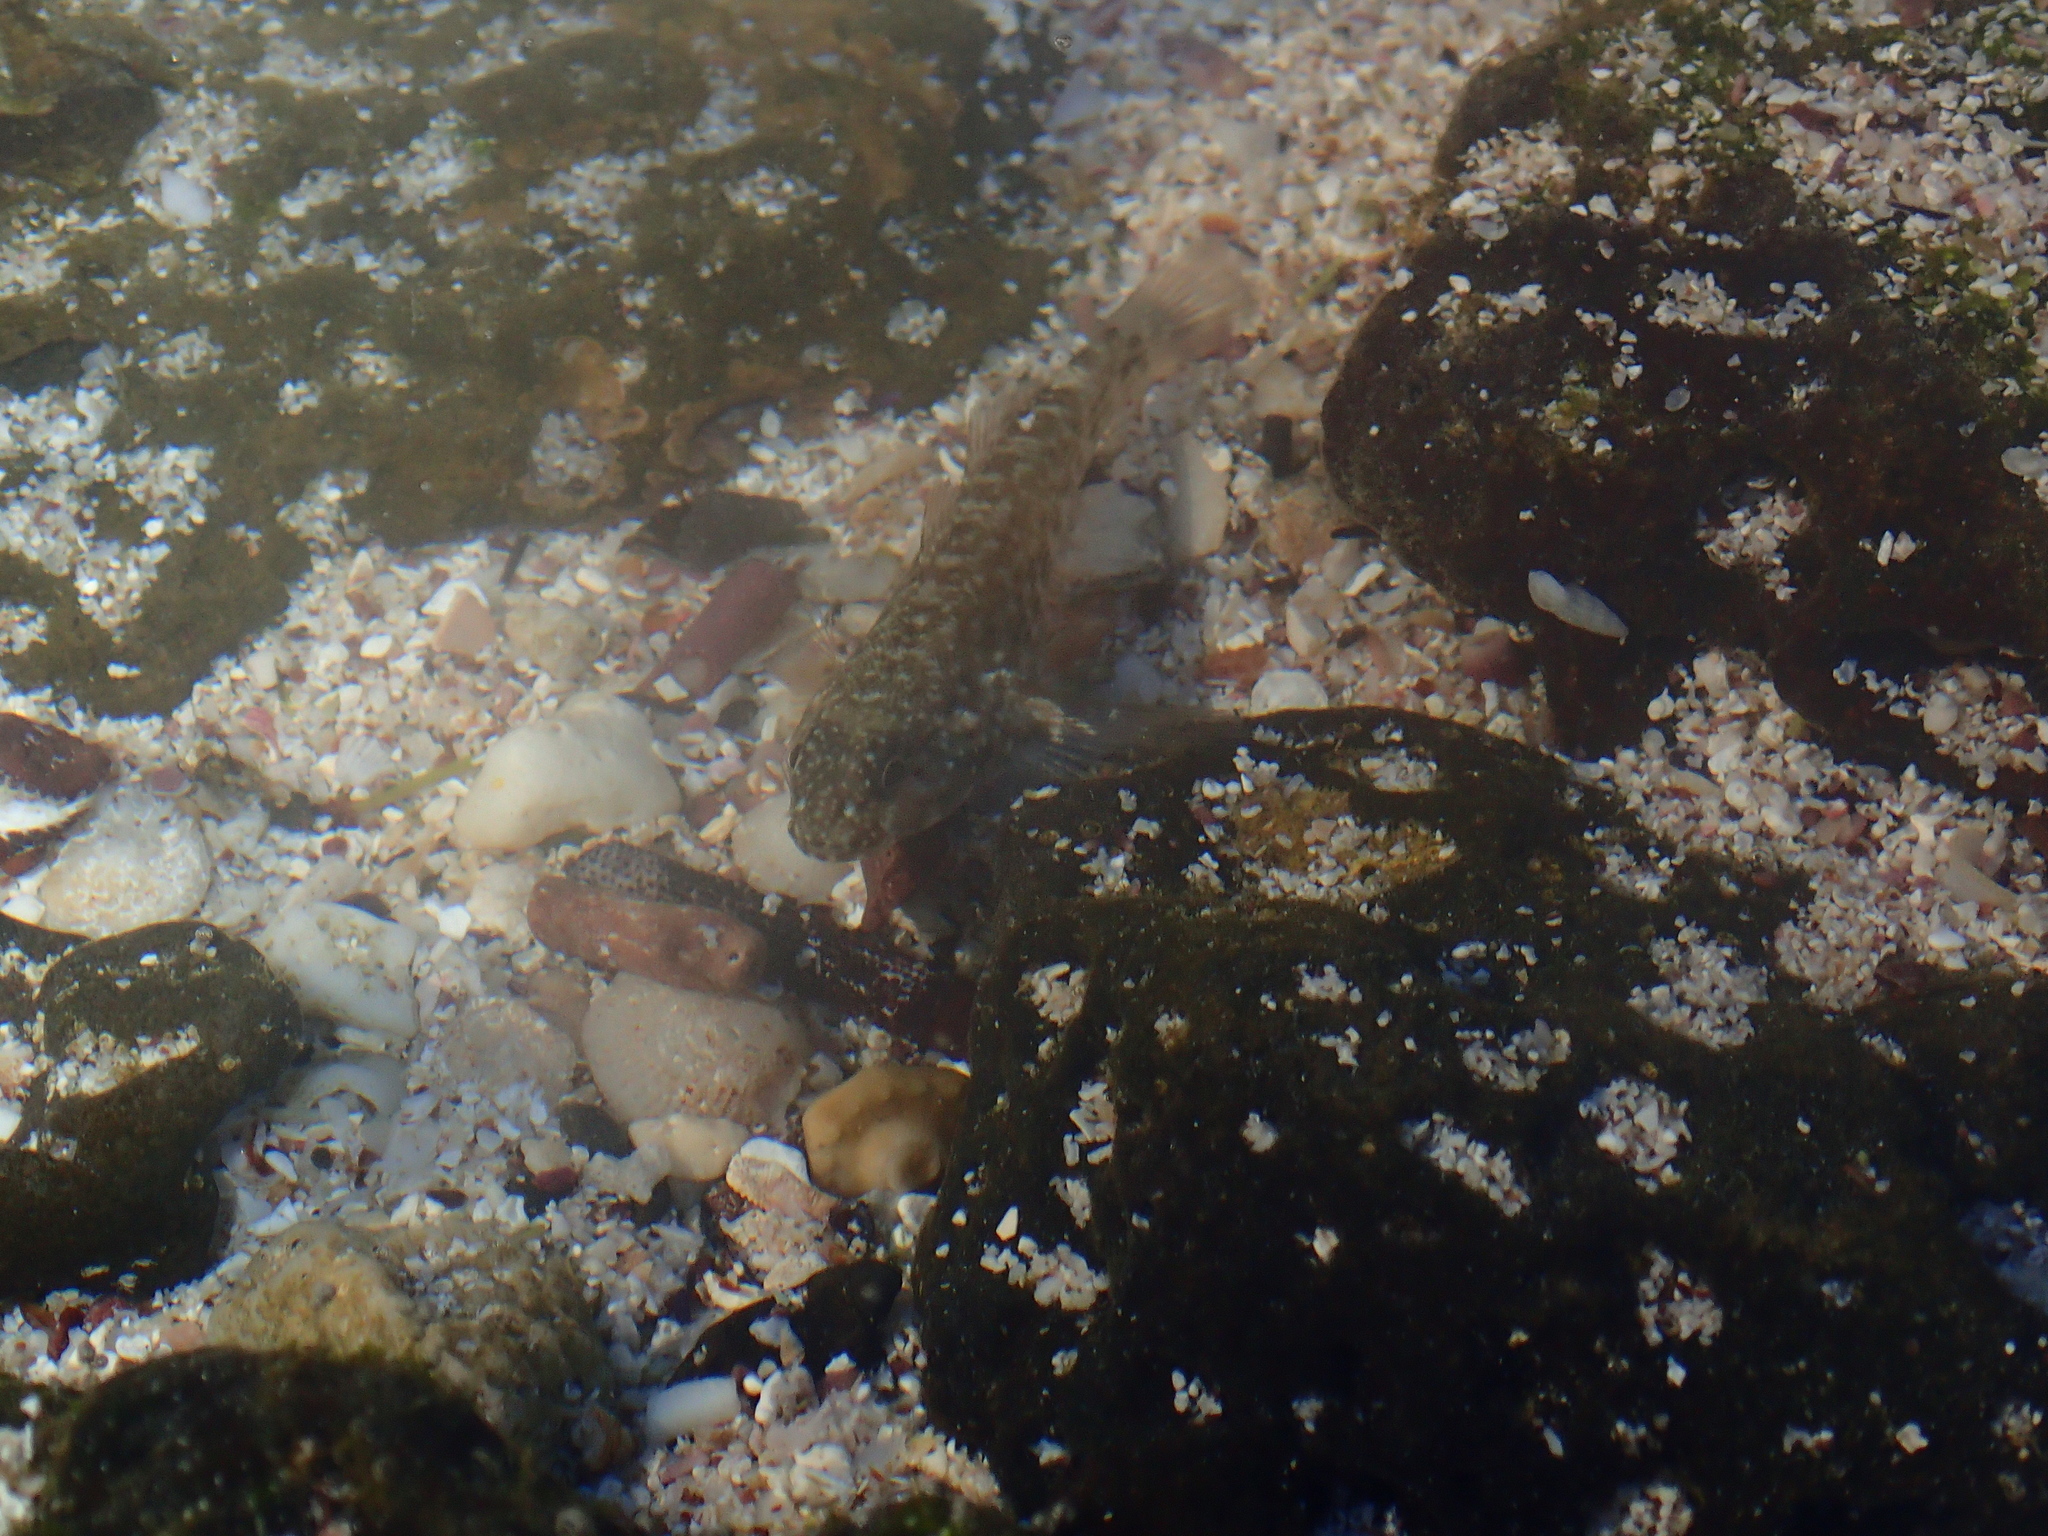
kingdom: Animalia
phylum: Chordata
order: Perciformes
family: Gobiidae
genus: Bathygobius
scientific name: Bathygobius lineatus
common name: Southern frillfin
